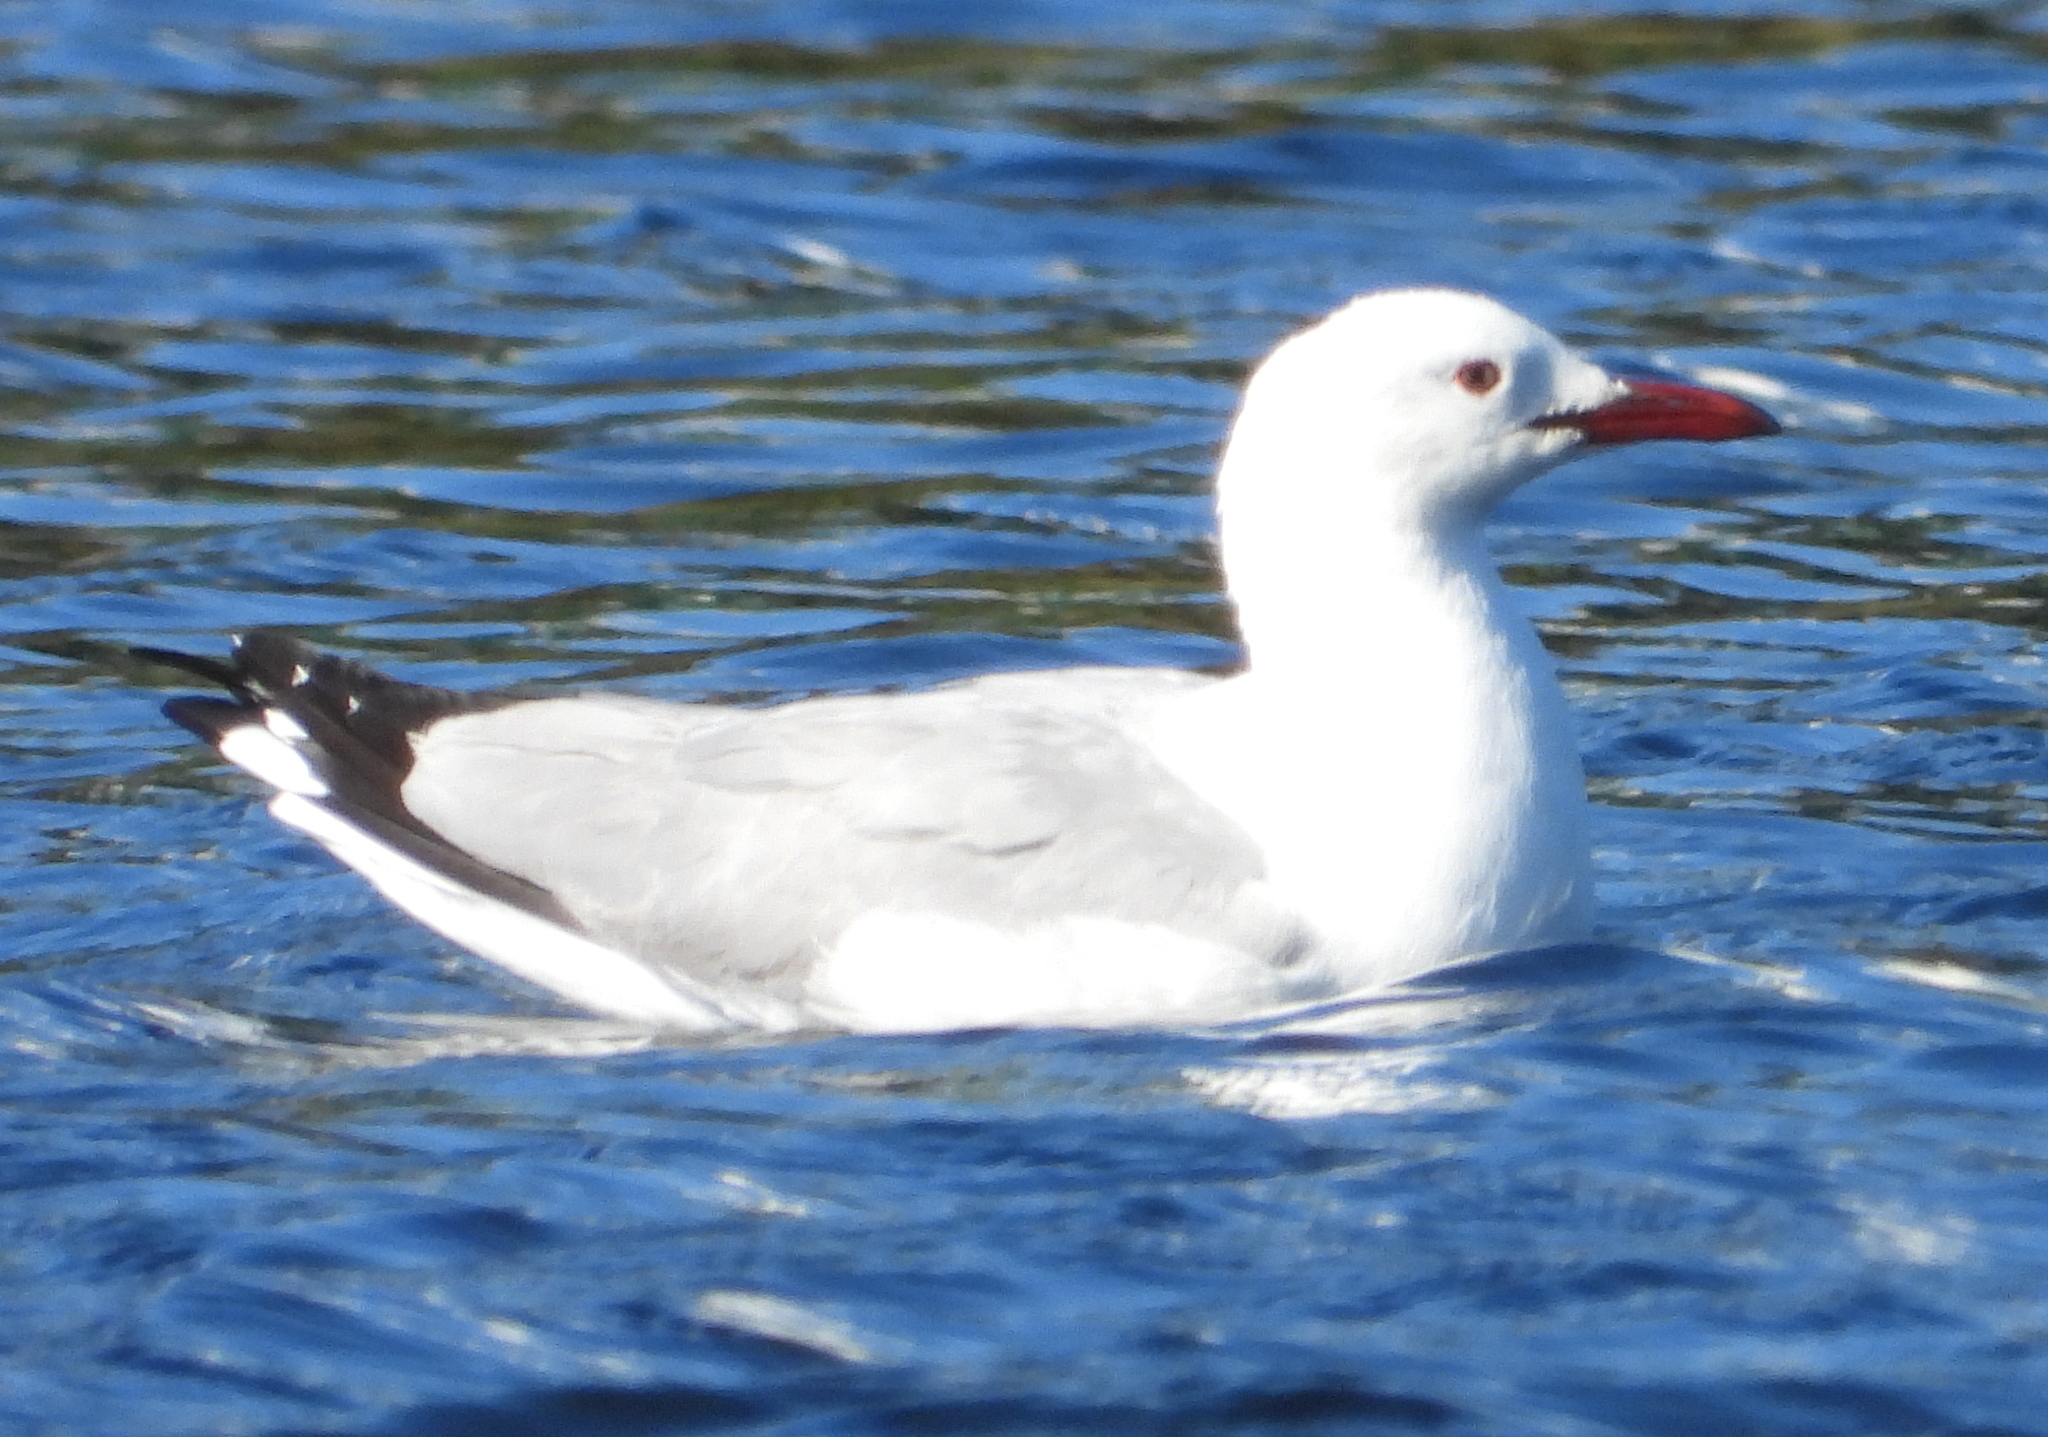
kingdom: Animalia
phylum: Chordata
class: Aves
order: Charadriiformes
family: Laridae
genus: Chroicocephalus
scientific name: Chroicocephalus hartlaubii
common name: Hartlaub's gull
